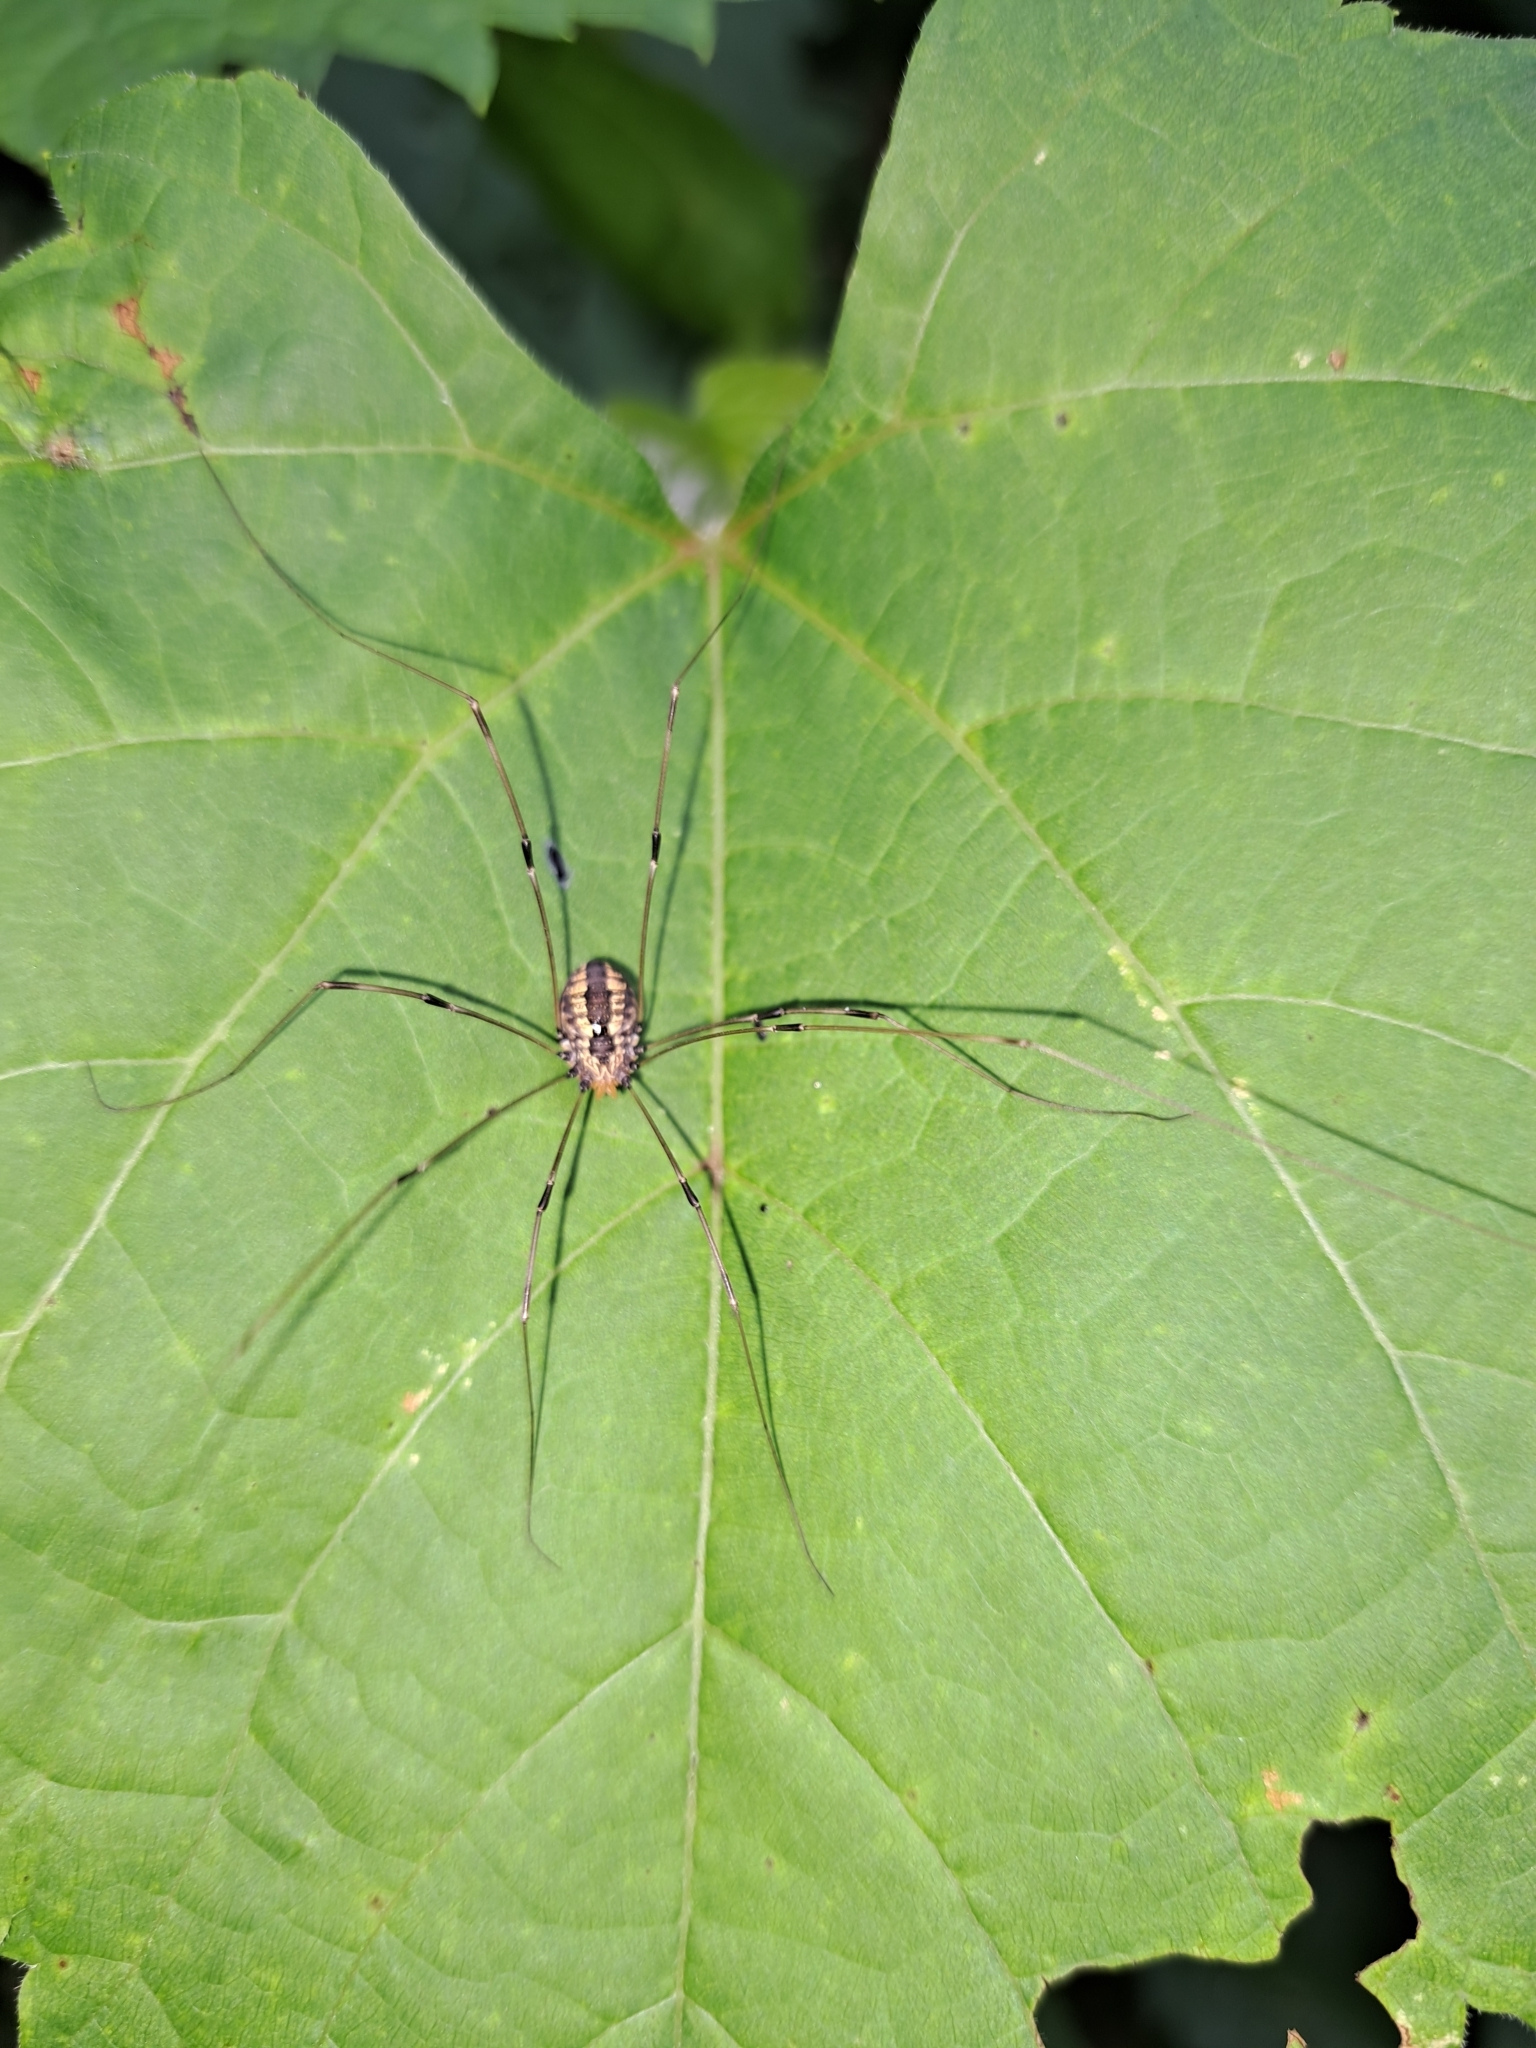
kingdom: Animalia
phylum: Arthropoda
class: Arachnida
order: Opiliones
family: Sclerosomatidae
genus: Leiobunum
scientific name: Leiobunum vittatum
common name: Eastern harvestman
